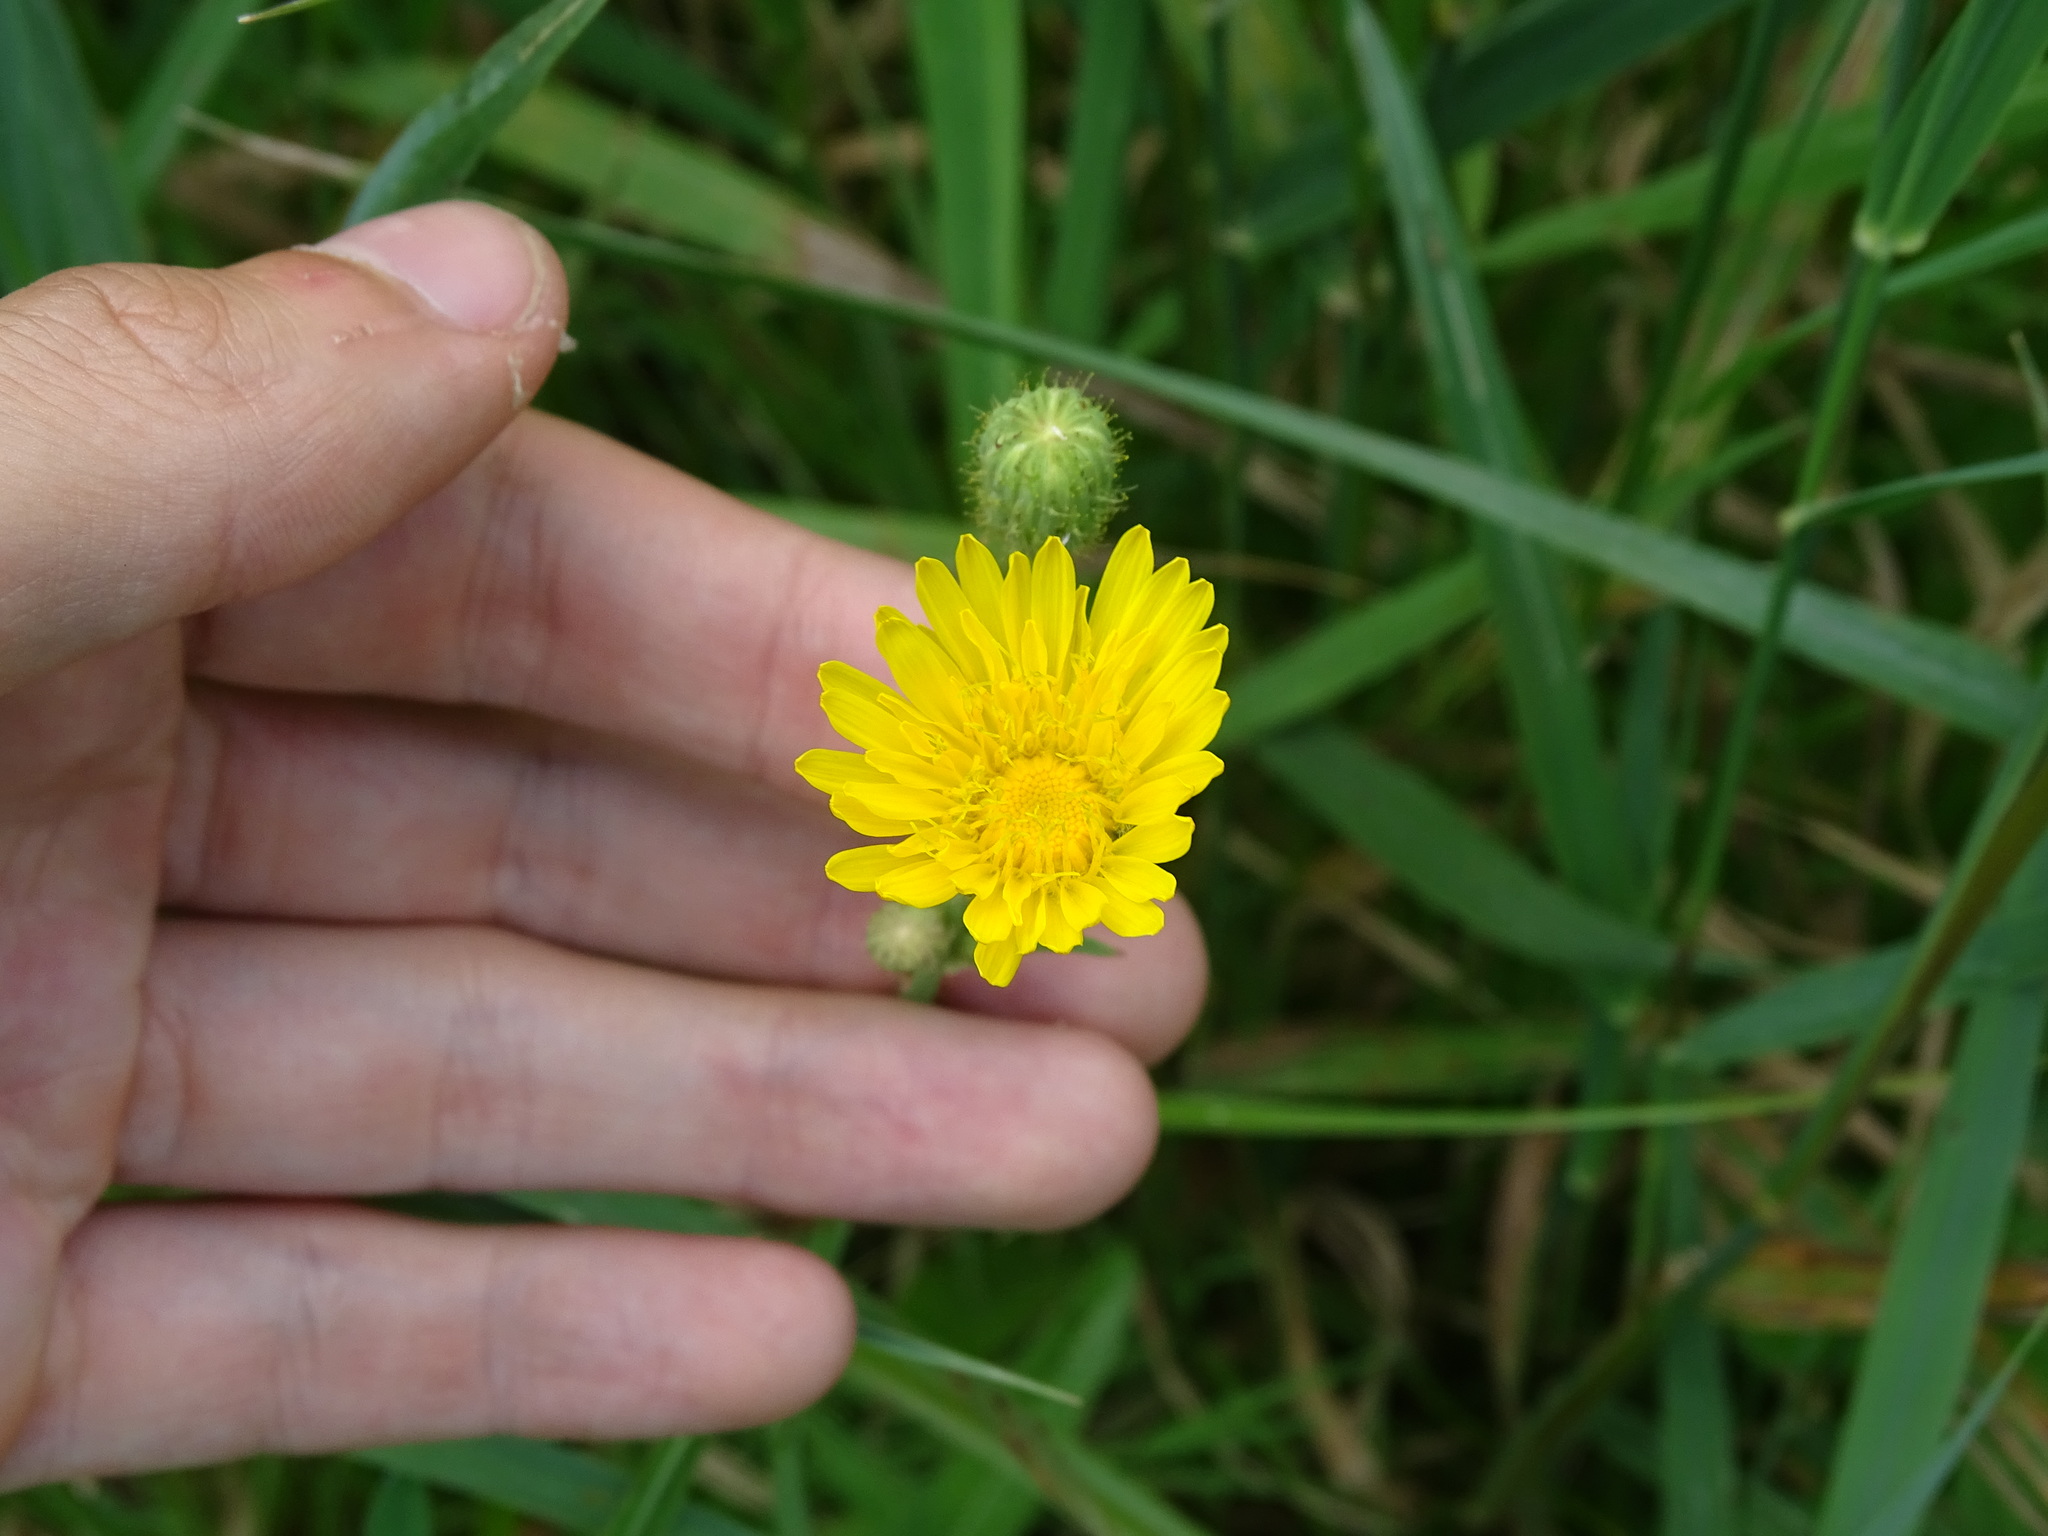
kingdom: Plantae
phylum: Tracheophyta
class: Magnoliopsida
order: Asterales
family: Asteraceae
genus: Sonchus
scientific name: Sonchus arvensis
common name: Perennial sow-thistle
